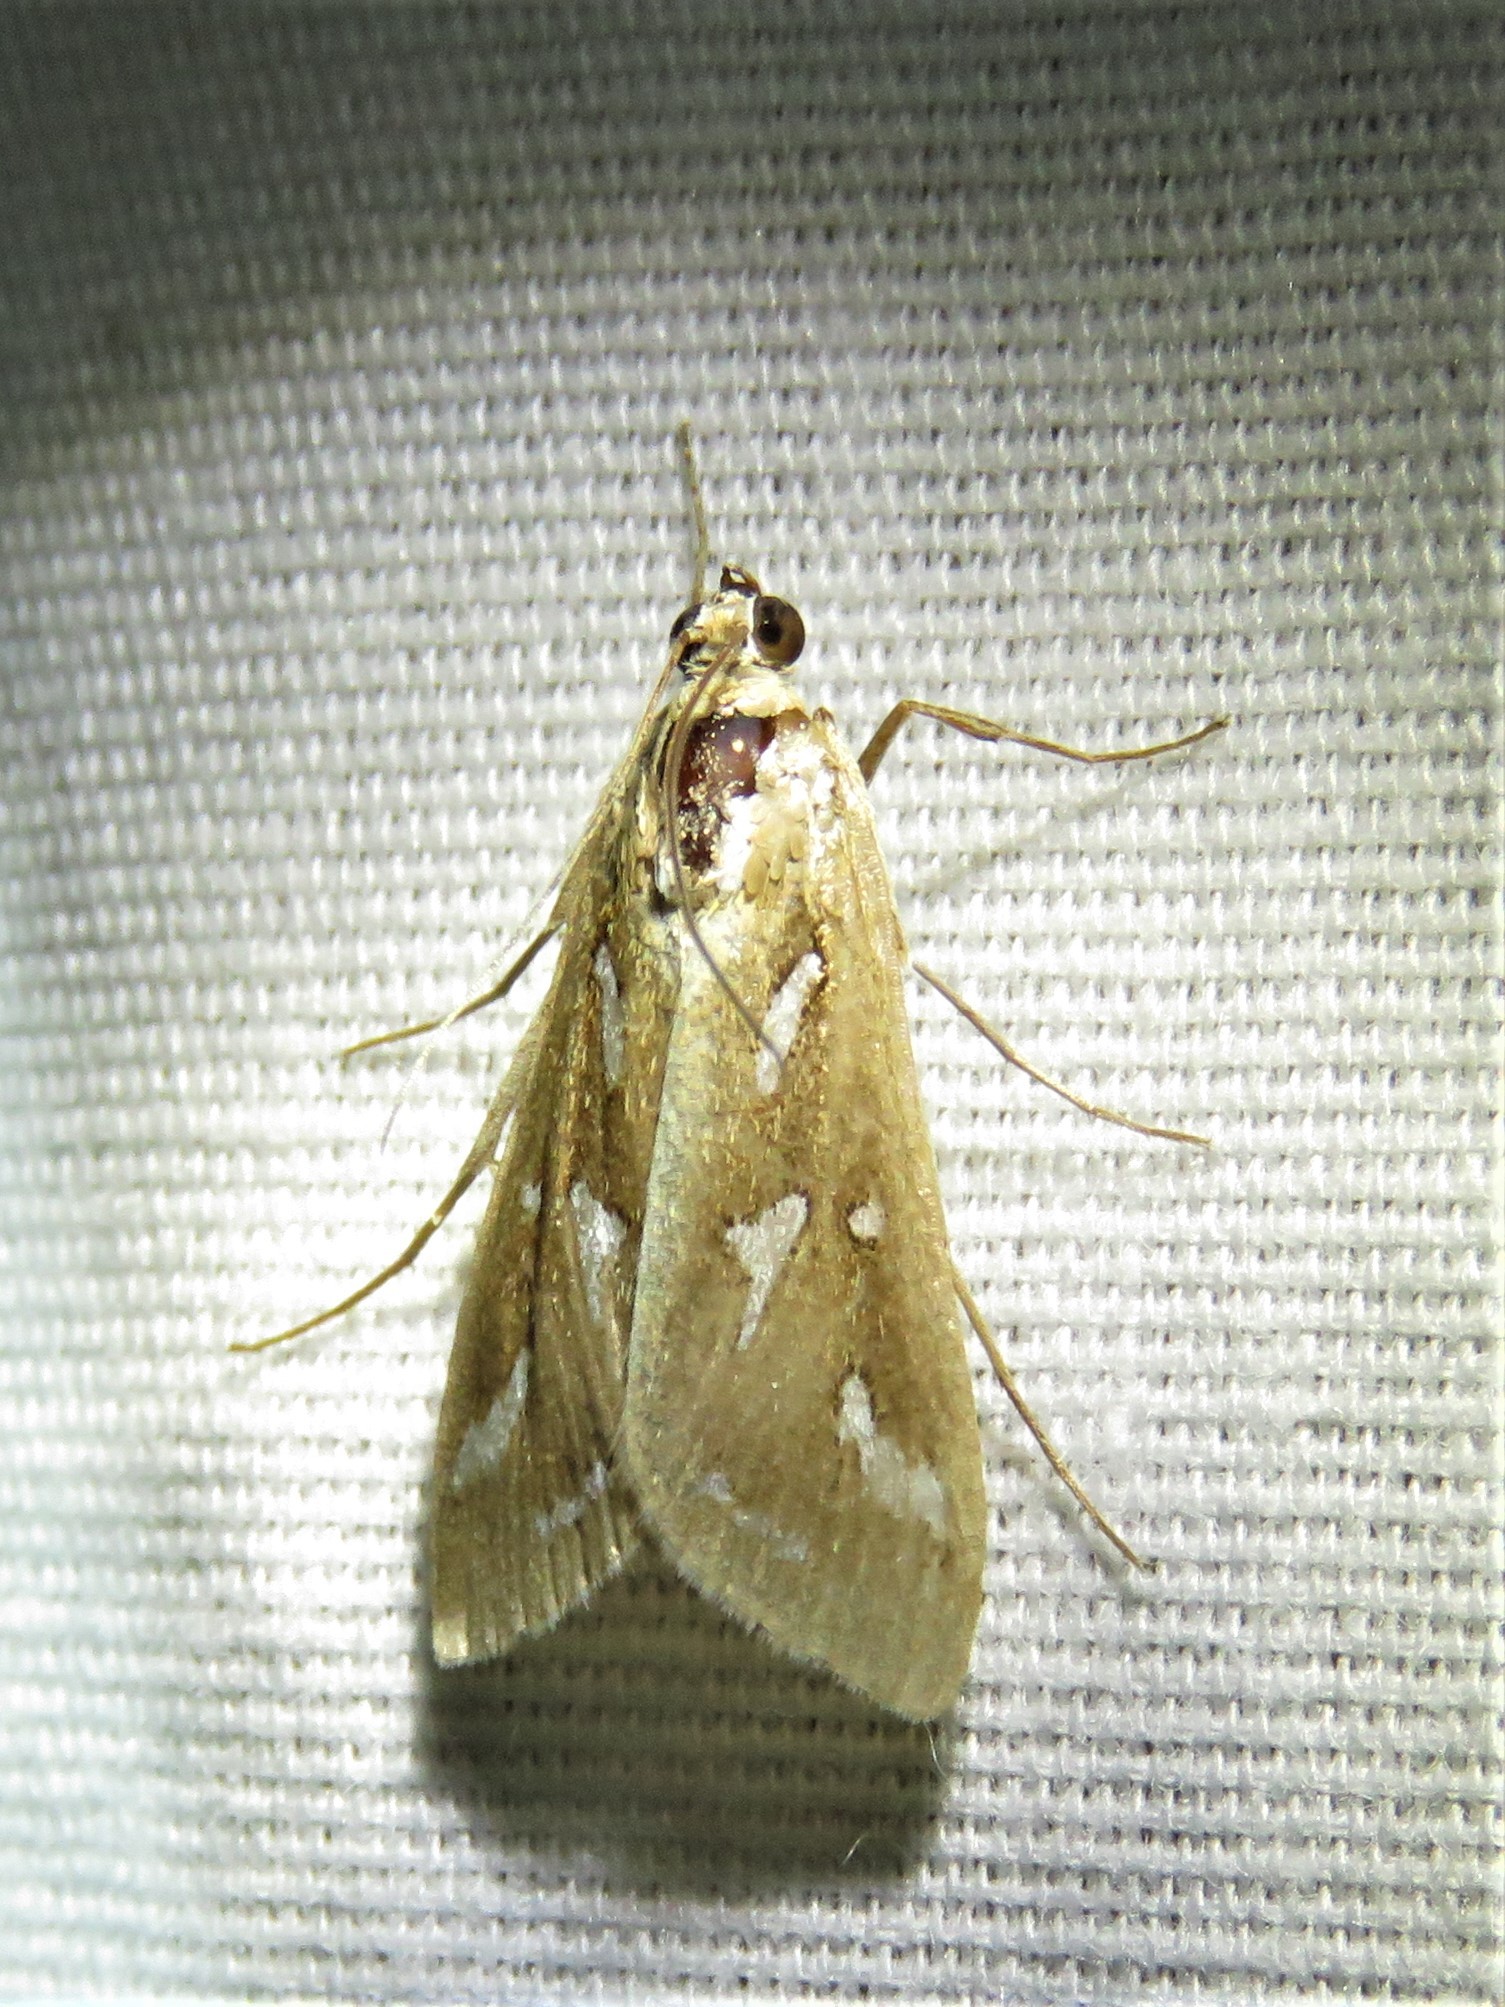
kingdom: Animalia
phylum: Arthropoda
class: Insecta
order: Lepidoptera
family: Crambidae
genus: Diastictis
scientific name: Diastictis fracturalis
